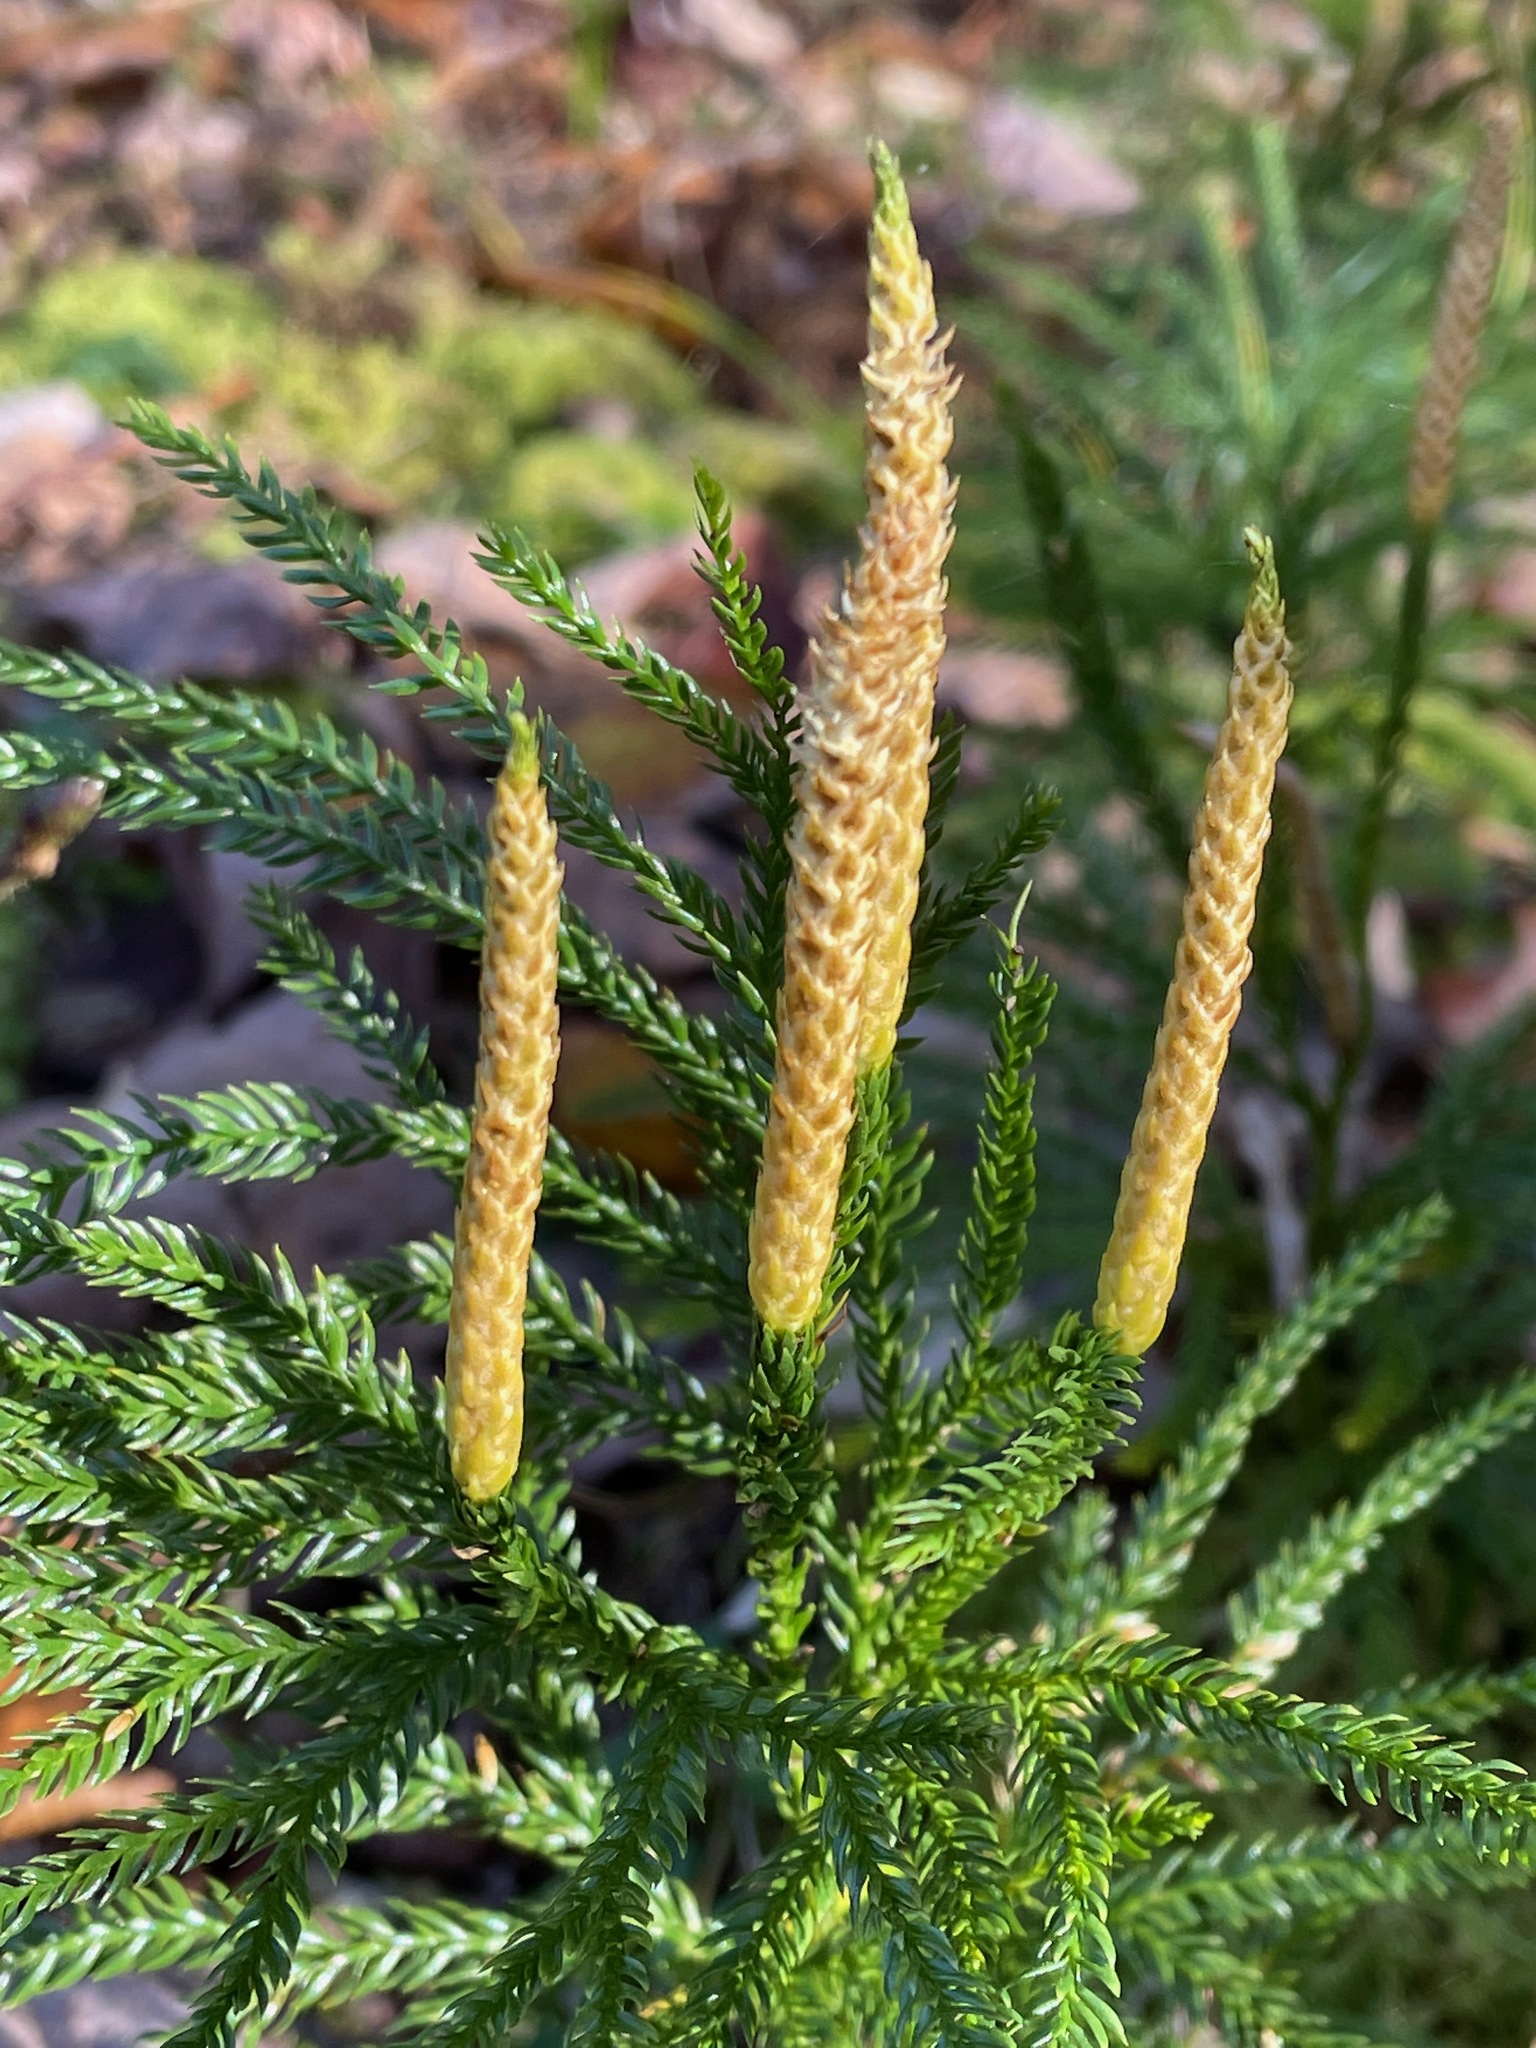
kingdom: Plantae
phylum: Tracheophyta
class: Lycopodiopsida
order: Lycopodiales
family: Lycopodiaceae
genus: Dendrolycopodium
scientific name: Dendrolycopodium obscurum
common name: Common ground-pine
